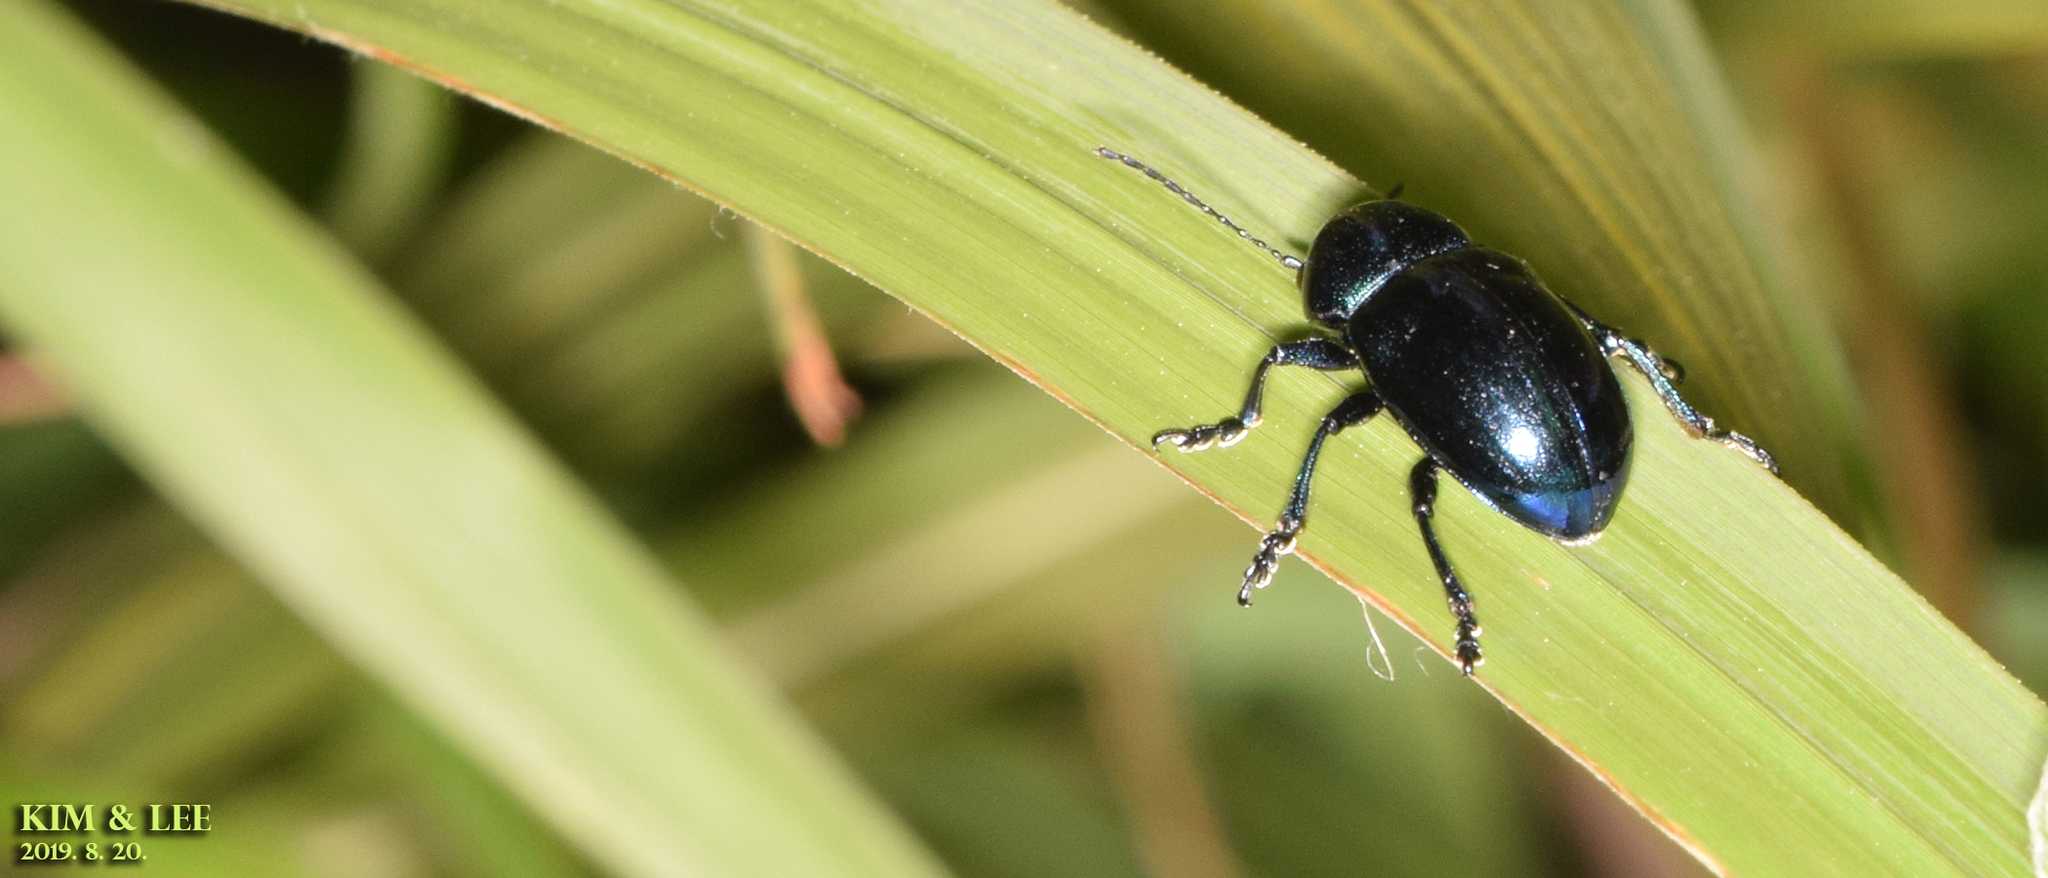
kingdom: Animalia
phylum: Arthropoda
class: Insecta
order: Coleoptera
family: Chrysomelidae
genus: Chrysochus
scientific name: Chrysochus chinensis
